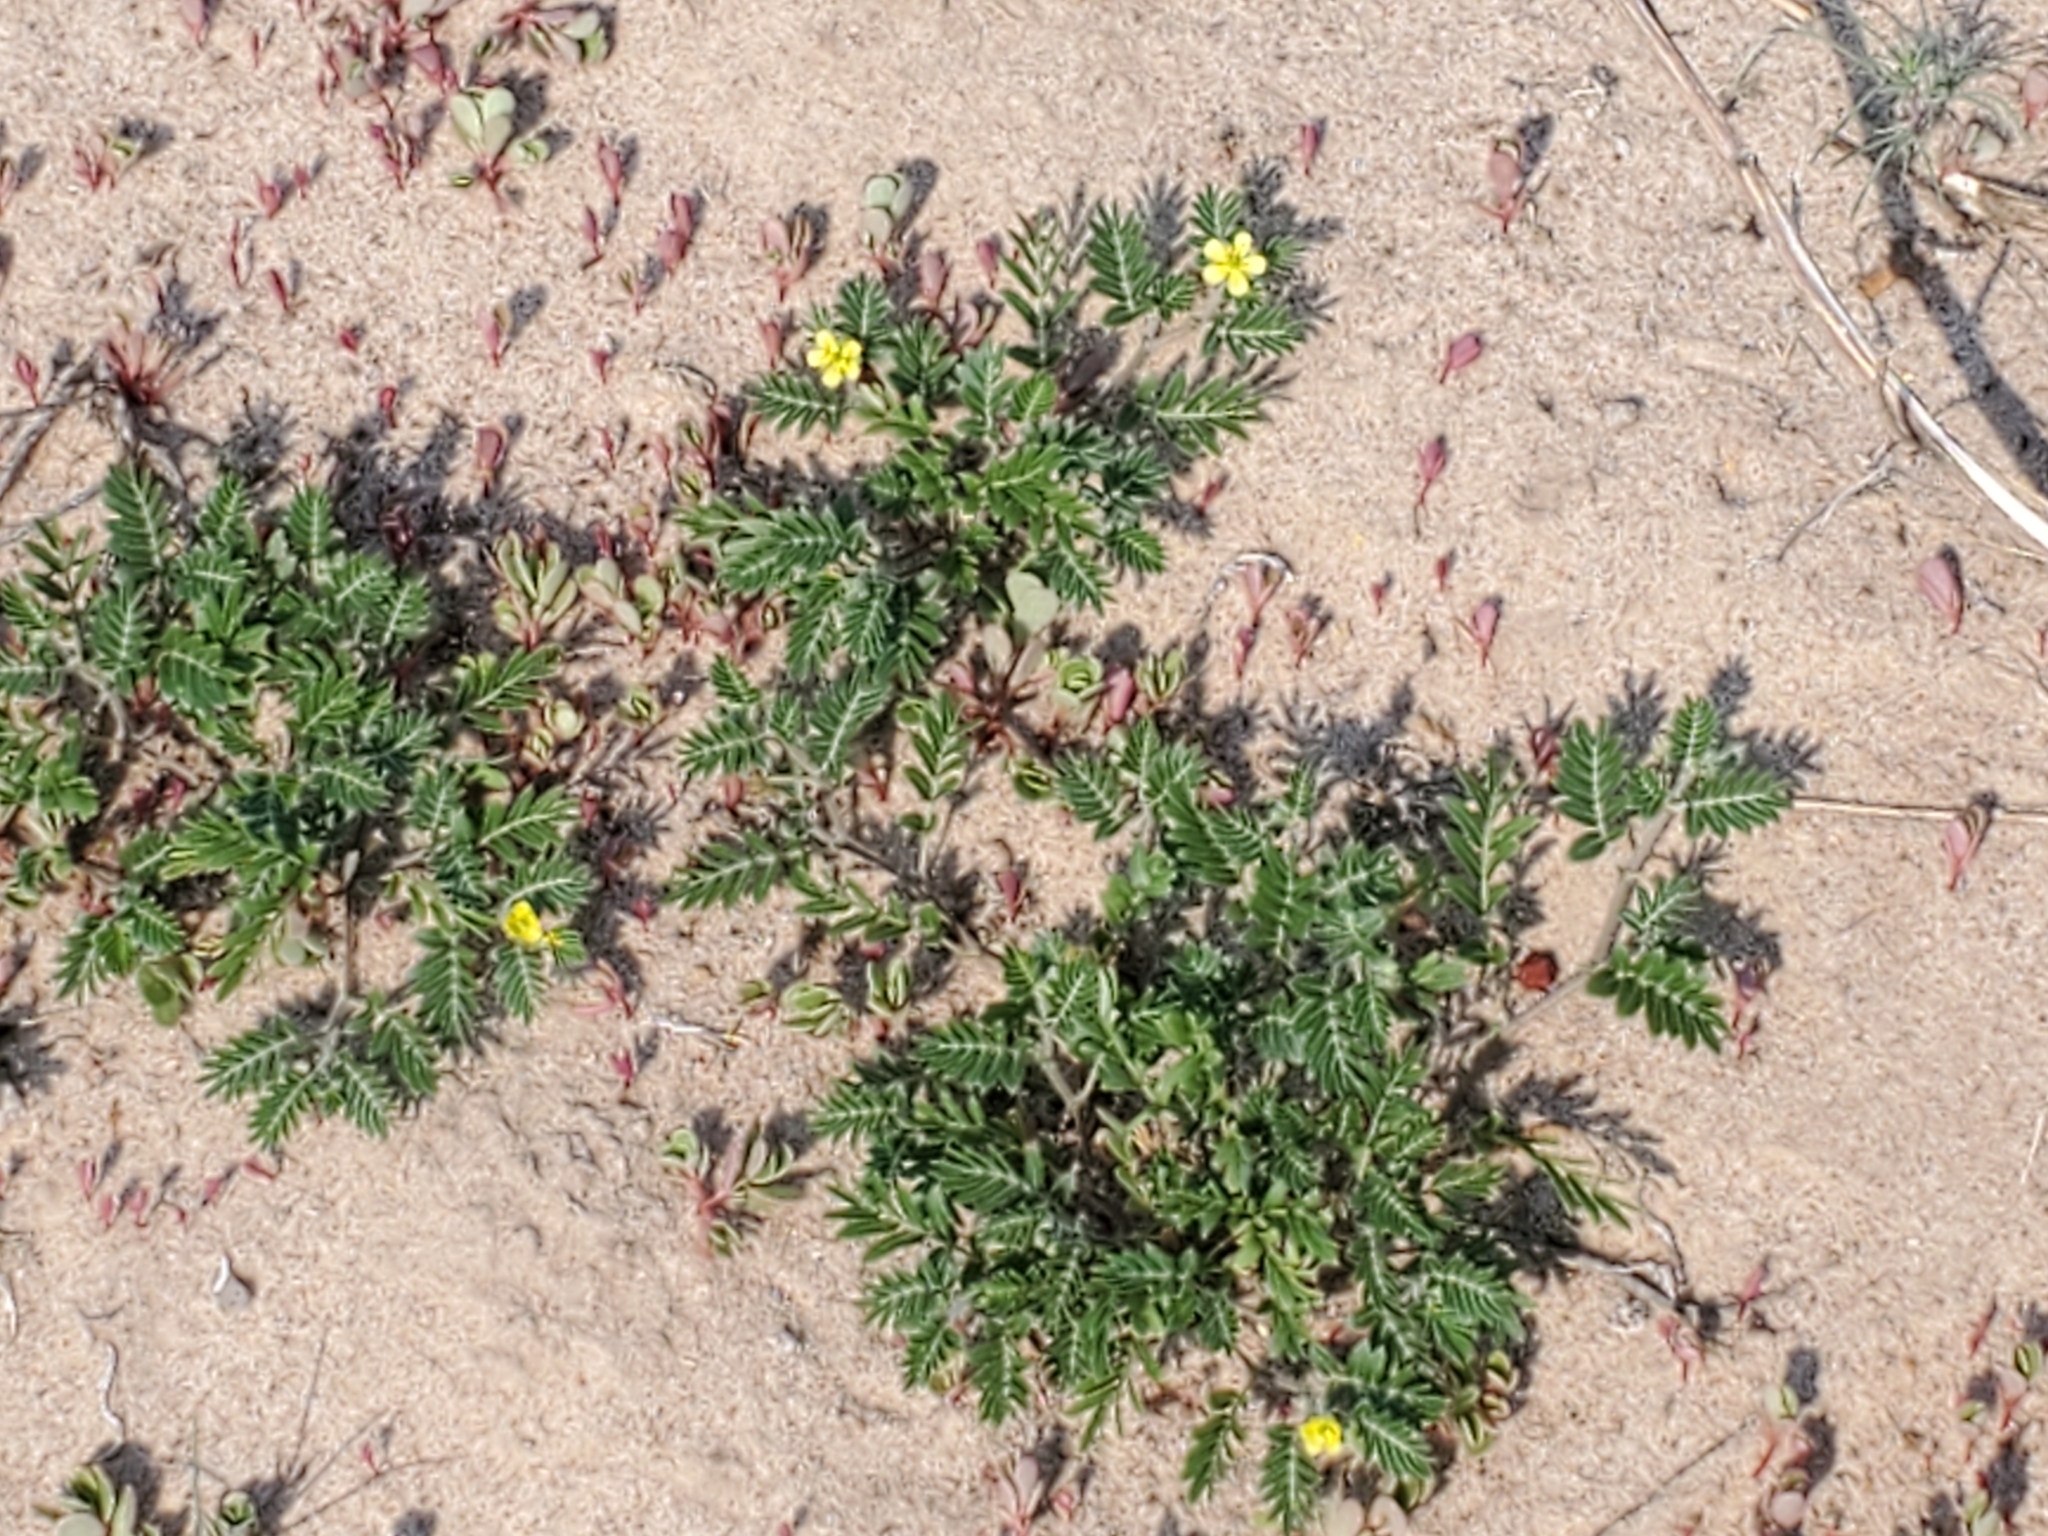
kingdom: Plantae
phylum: Tracheophyta
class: Magnoliopsida
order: Zygophyllales
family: Zygophyllaceae
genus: Tribulus
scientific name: Tribulus terrestris
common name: Puncturevine
